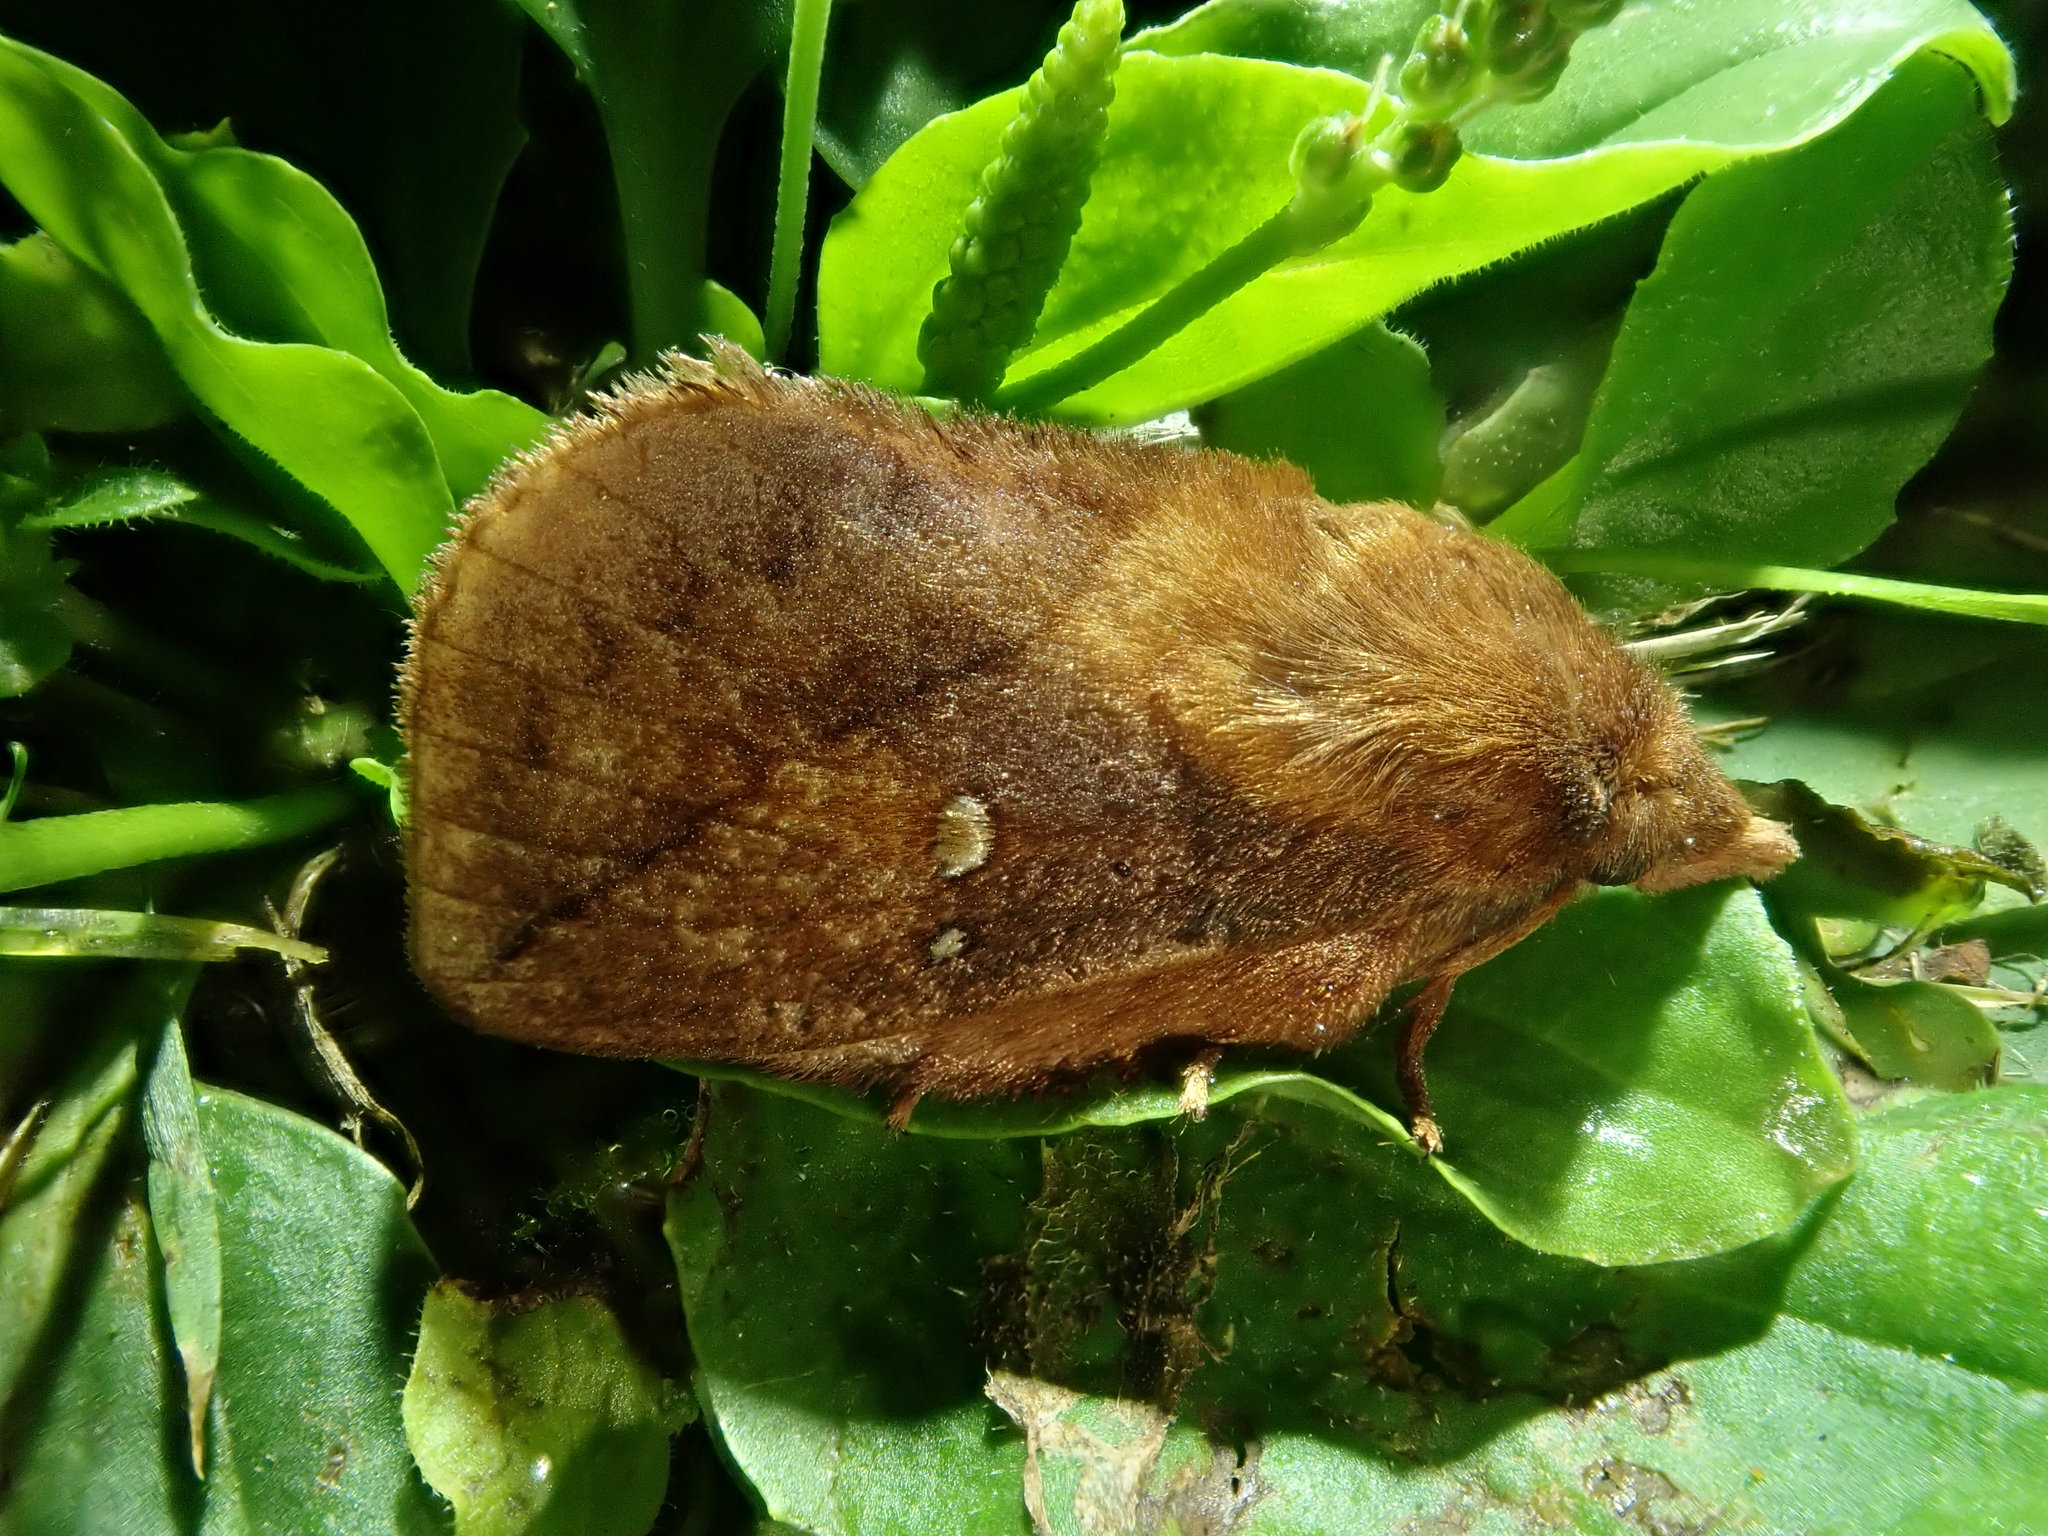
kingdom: Animalia
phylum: Arthropoda
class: Insecta
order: Lepidoptera
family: Lasiocampidae
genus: Euthrix
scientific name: Euthrix potatoria
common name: Drinker
